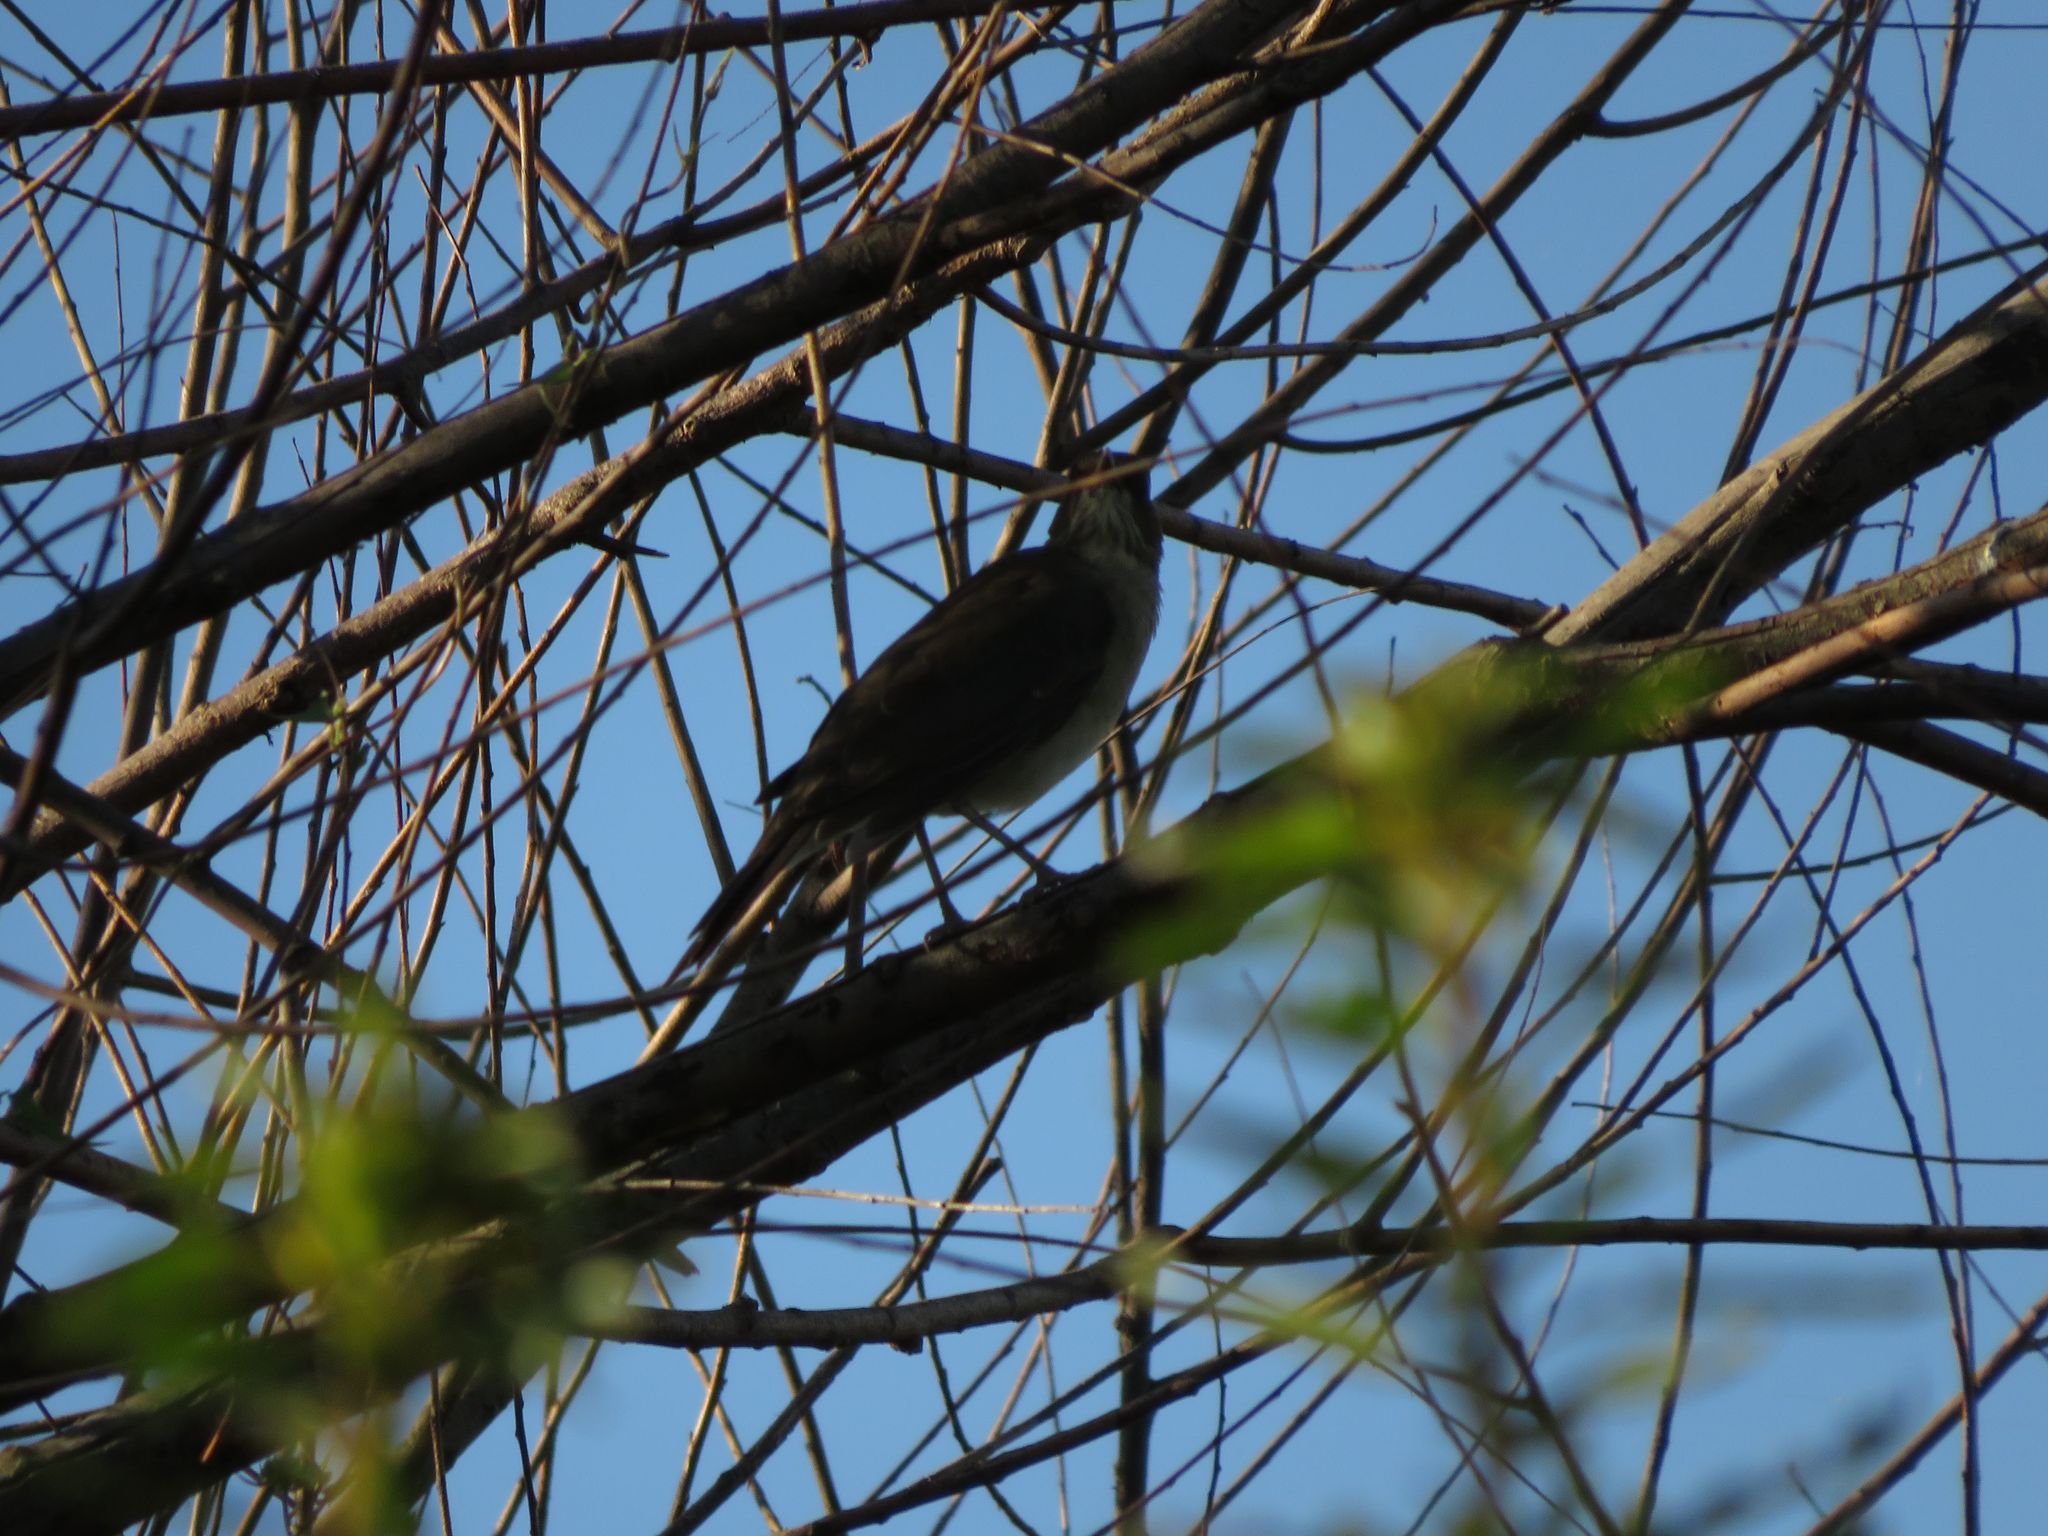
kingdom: Animalia
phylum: Chordata
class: Aves
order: Passeriformes
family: Turdidae
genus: Turdus
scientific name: Turdus amaurochalinus
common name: Creamy-bellied thrush
